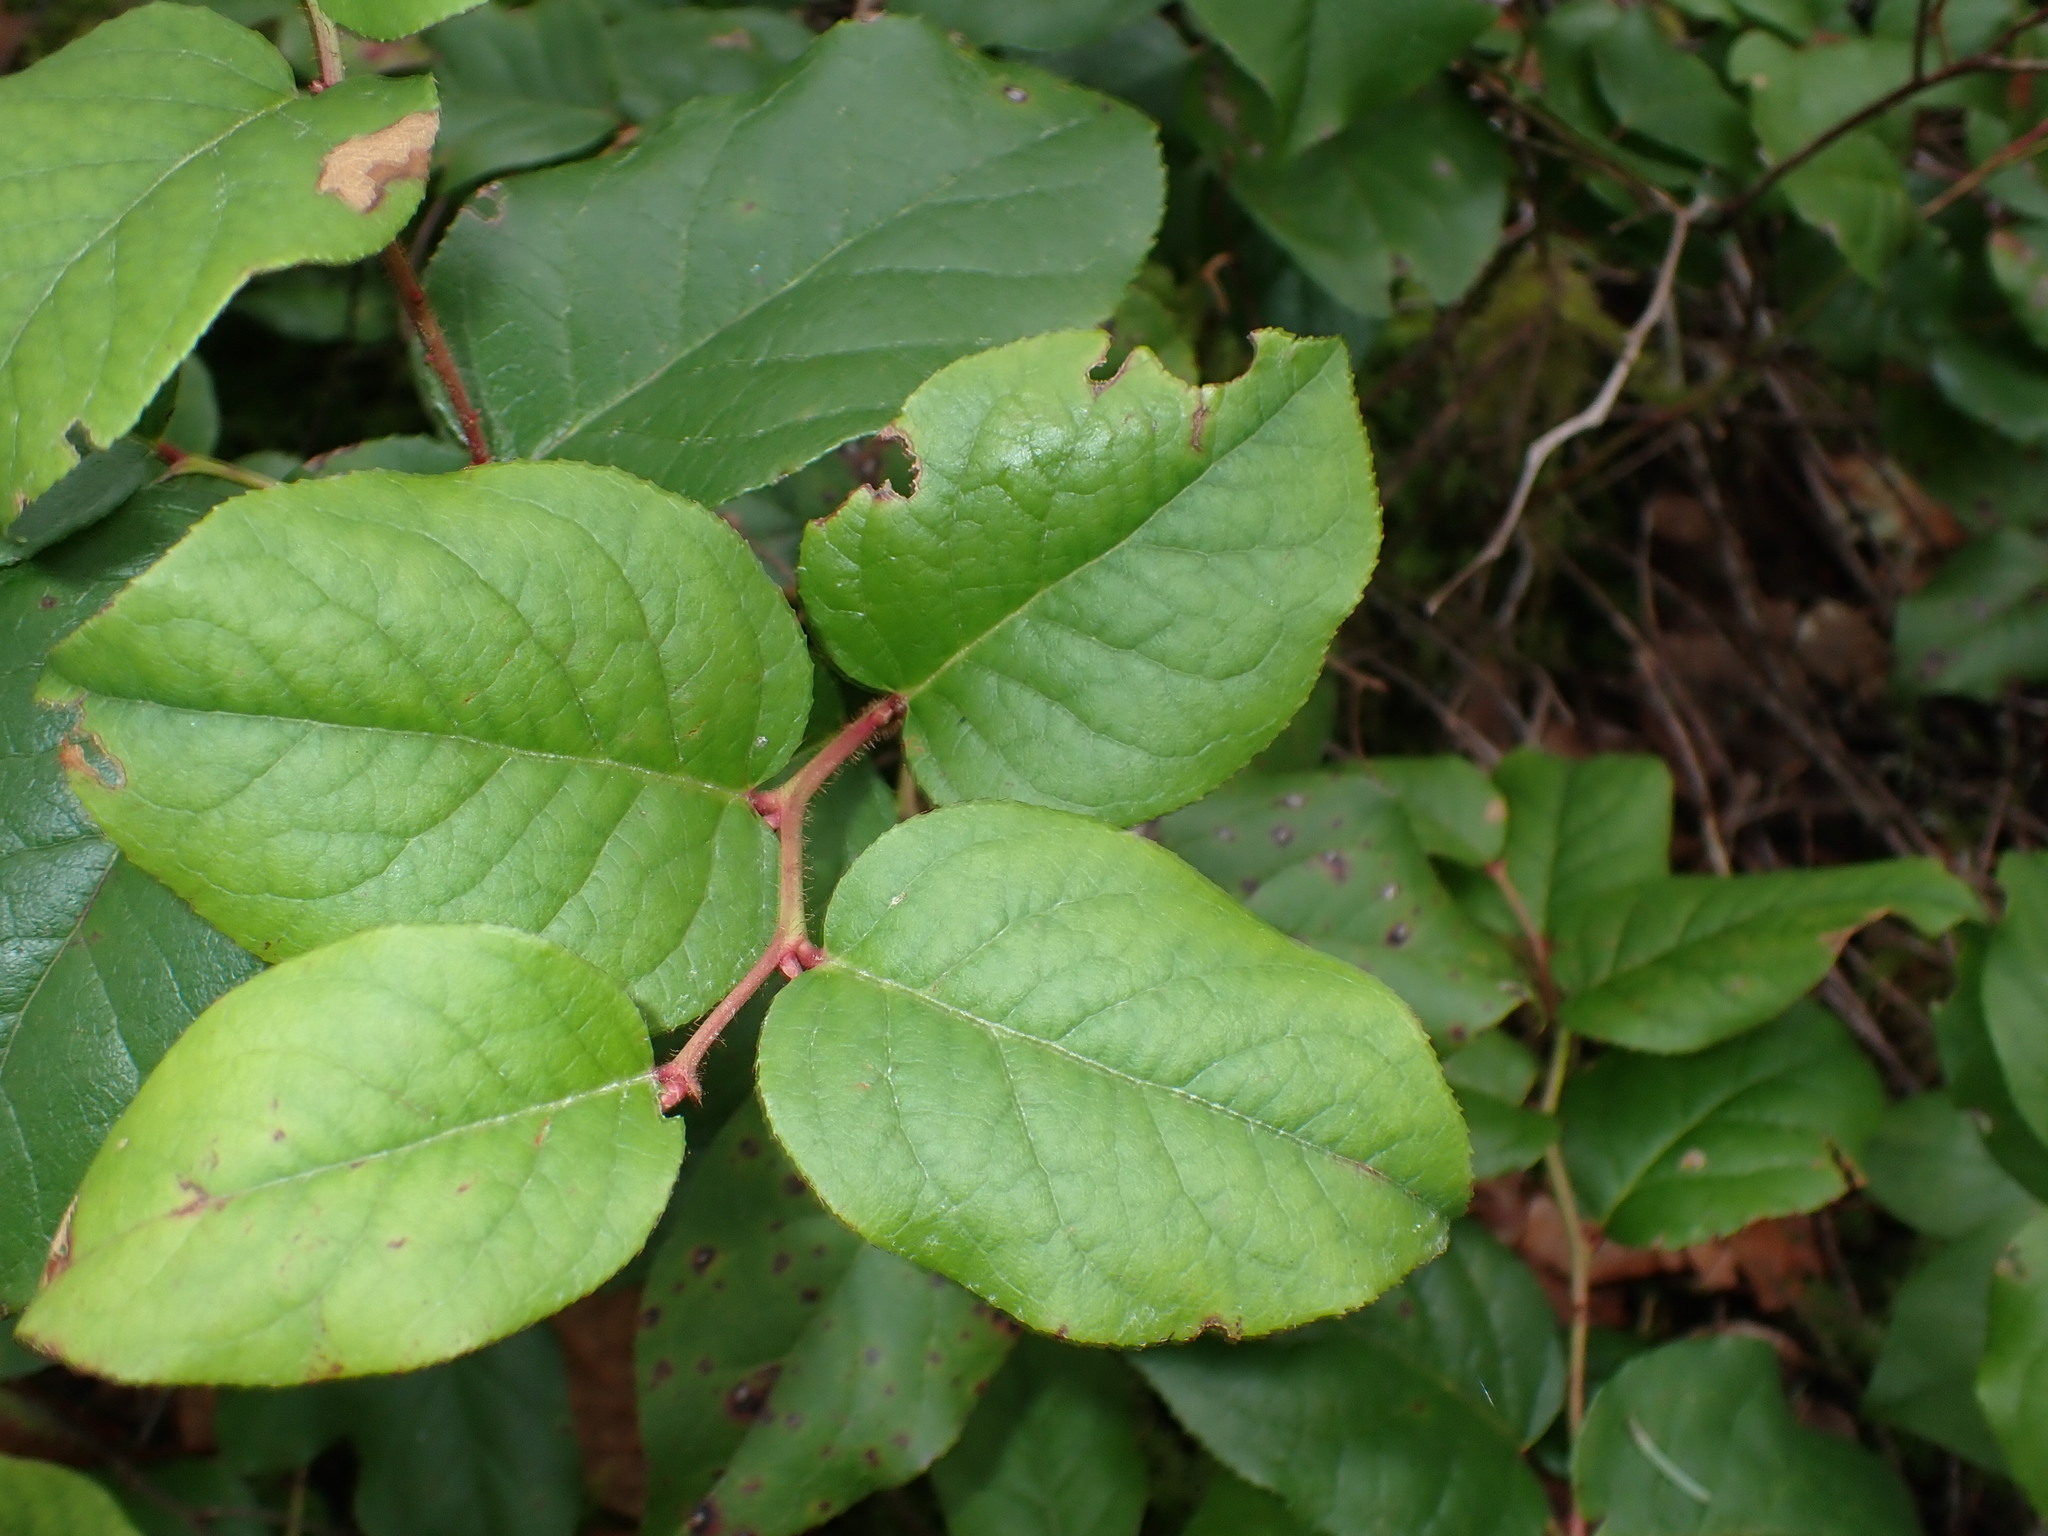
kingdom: Plantae
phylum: Tracheophyta
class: Magnoliopsida
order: Ericales
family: Ericaceae
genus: Gaultheria
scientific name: Gaultheria shallon
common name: Shallon
